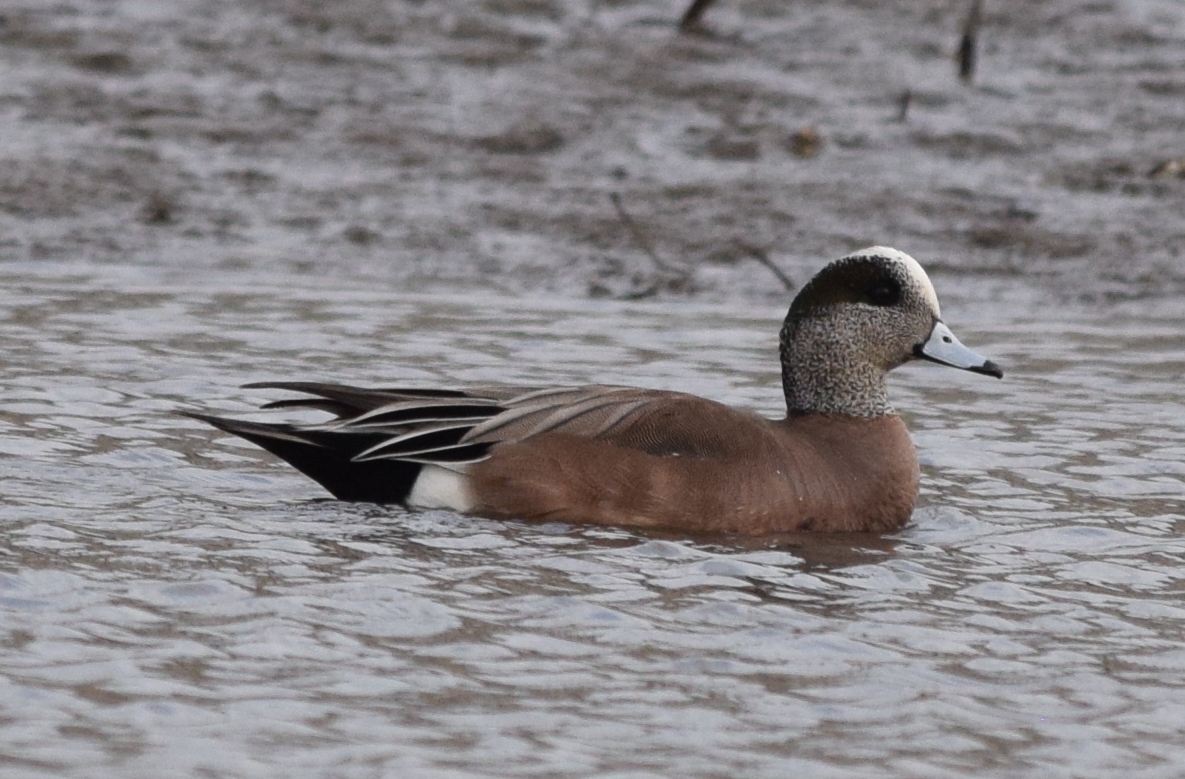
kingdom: Animalia
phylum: Chordata
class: Aves
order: Anseriformes
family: Anatidae
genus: Mareca
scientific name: Mareca americana
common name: American wigeon
